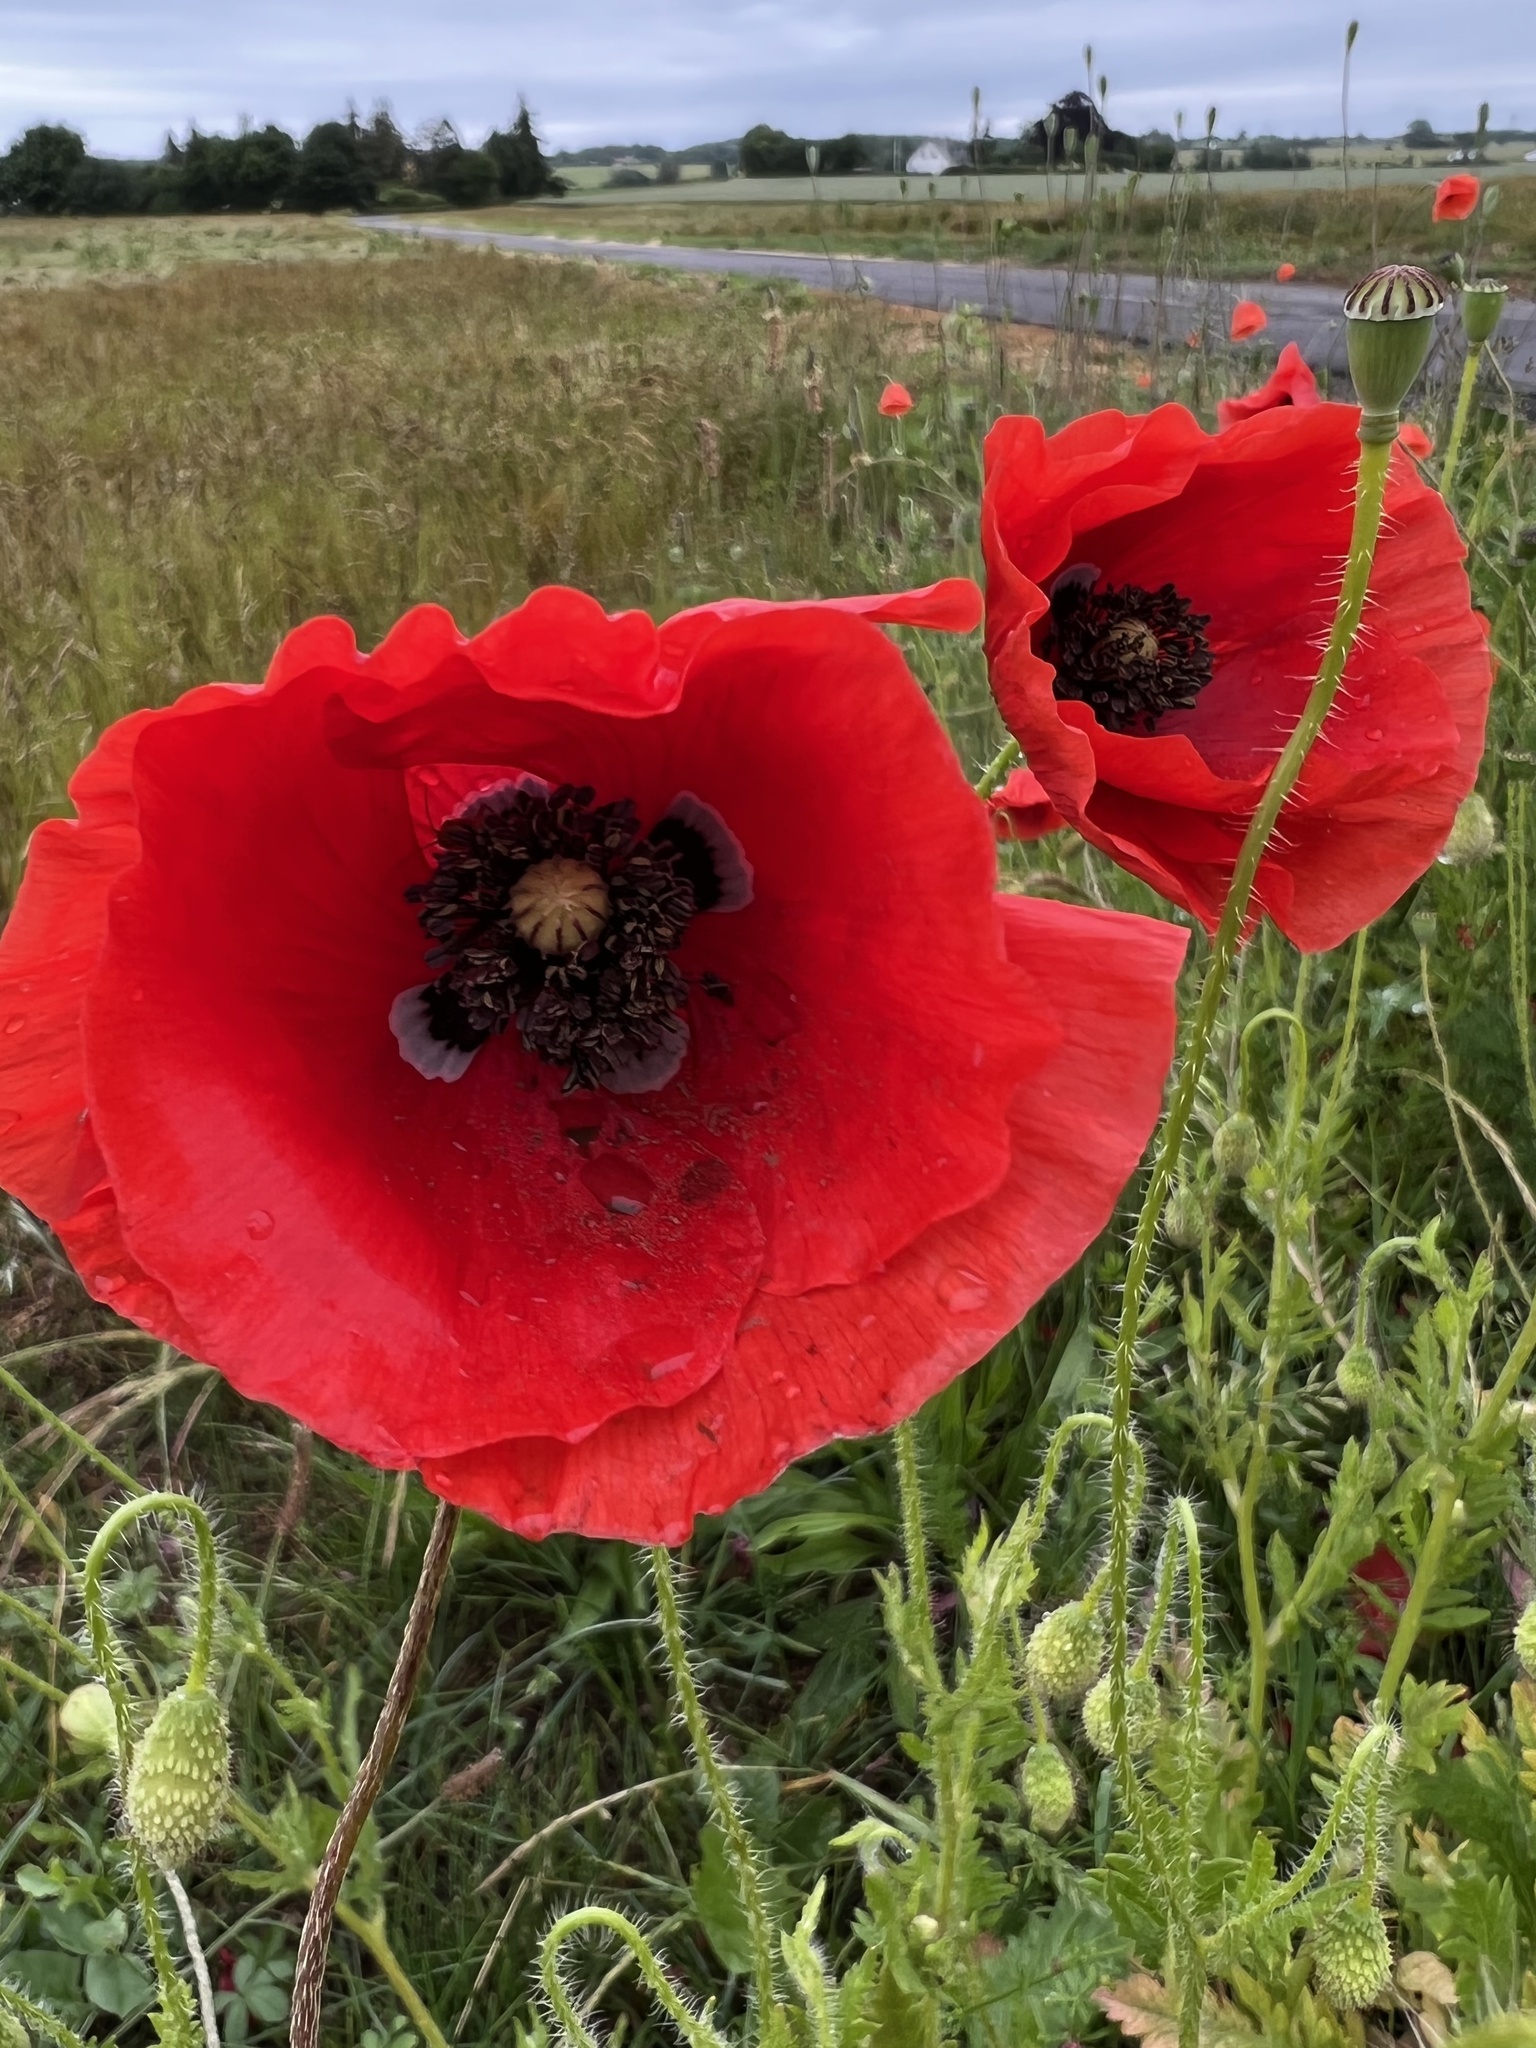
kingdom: Plantae
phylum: Tracheophyta
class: Magnoliopsida
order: Ranunculales
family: Papaveraceae
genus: Papaver
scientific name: Papaver rhoeas
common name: Corn poppy
